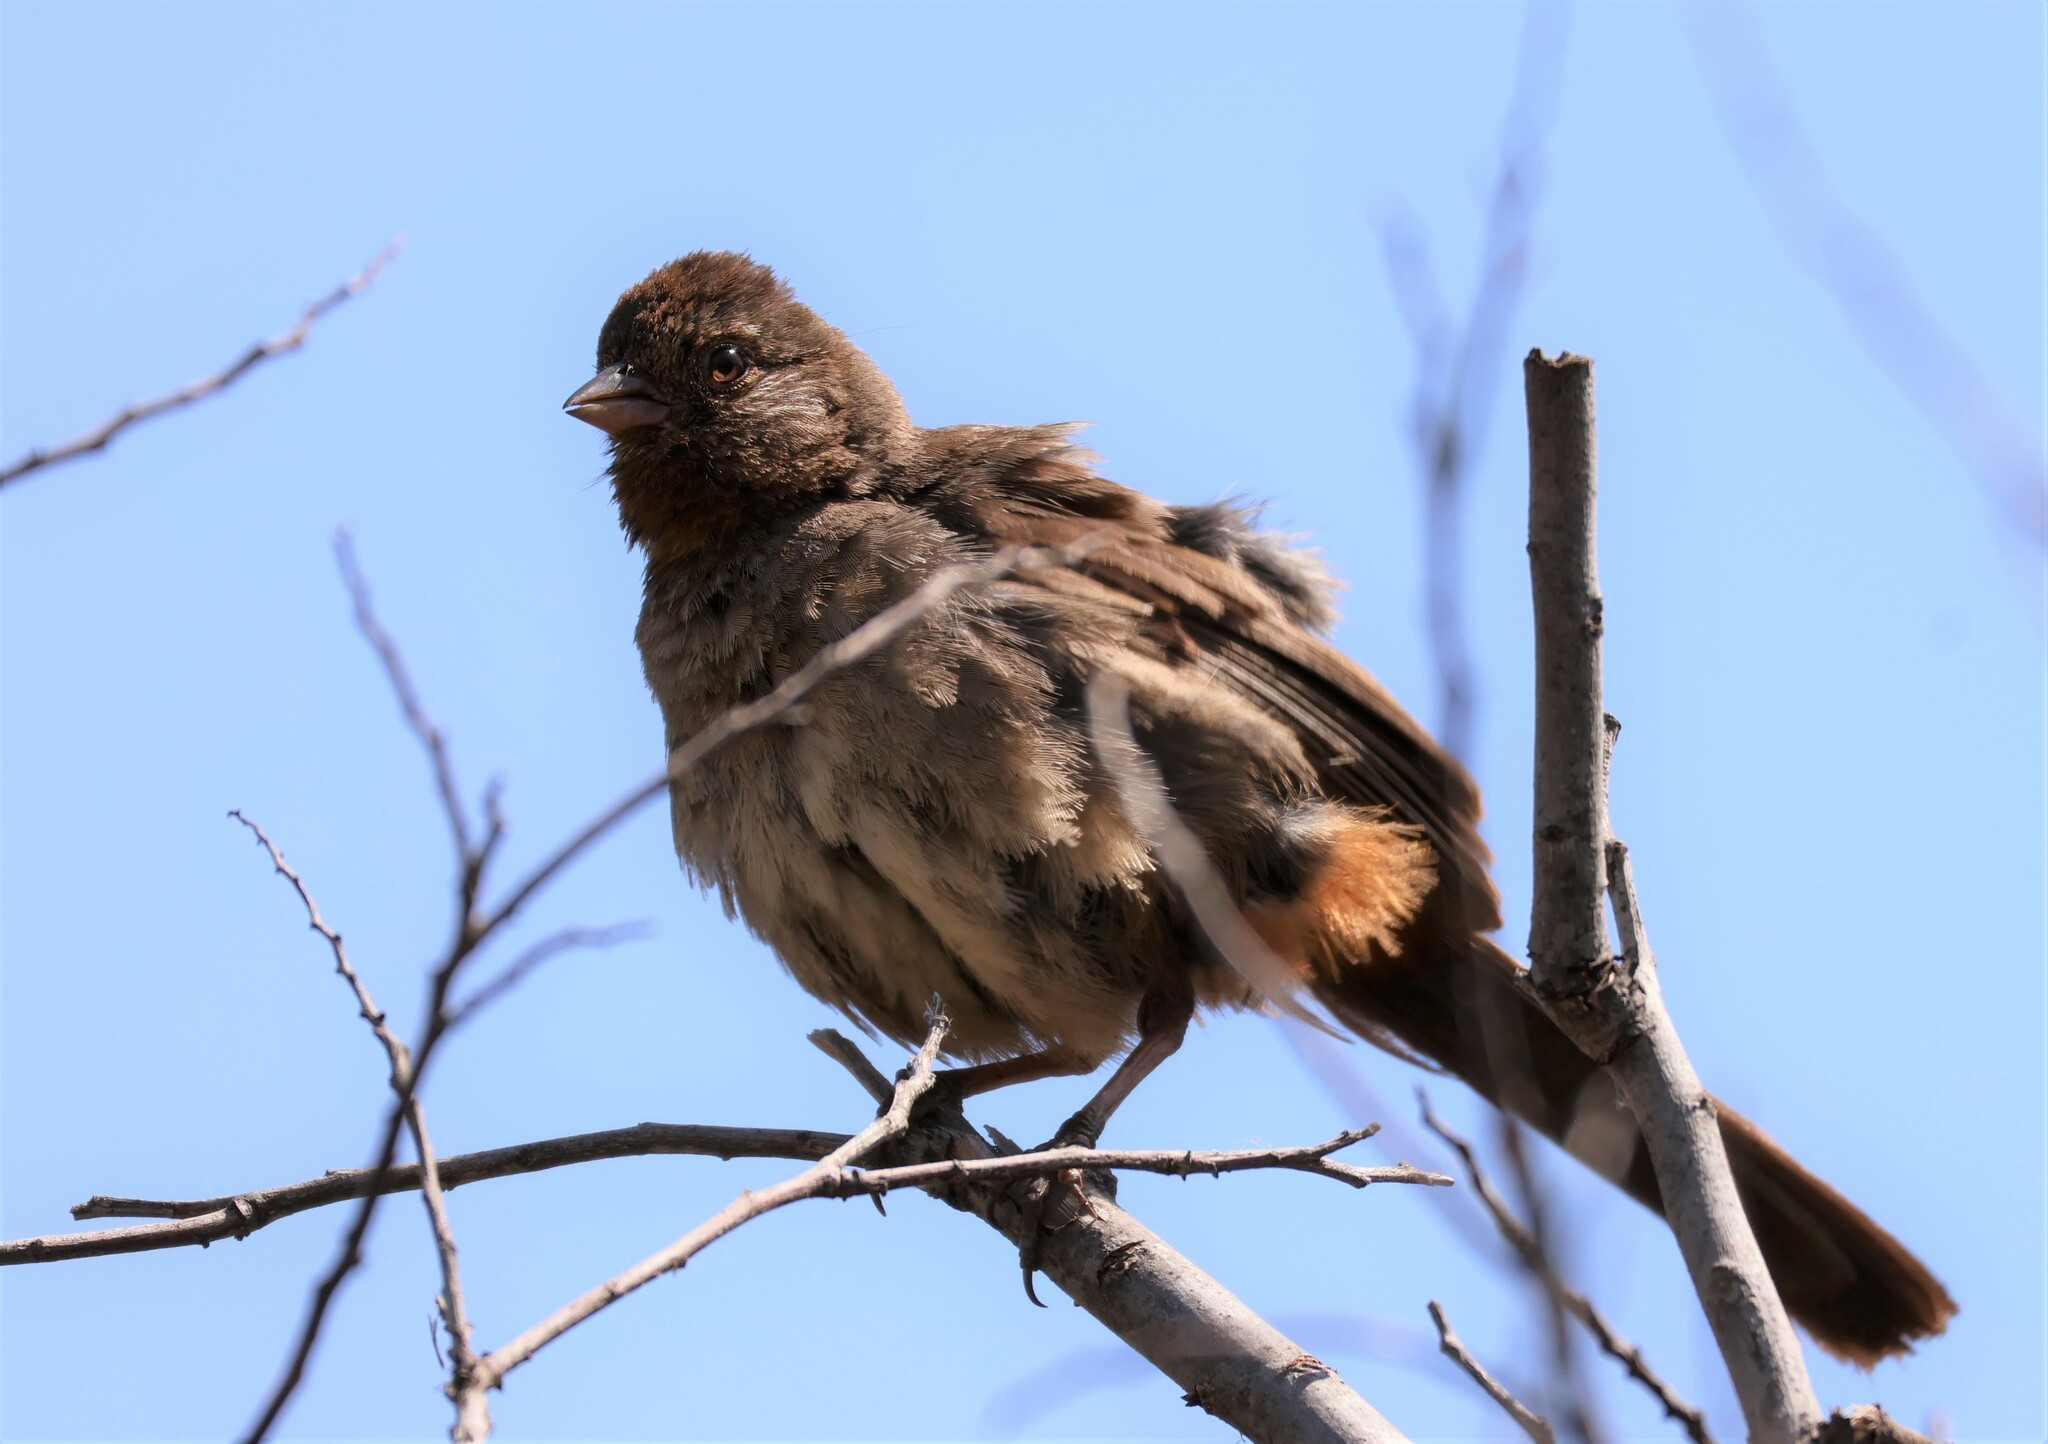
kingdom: Animalia
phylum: Chordata
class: Aves
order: Passeriformes
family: Passerellidae
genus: Melozone
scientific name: Melozone crissalis
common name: California towhee
